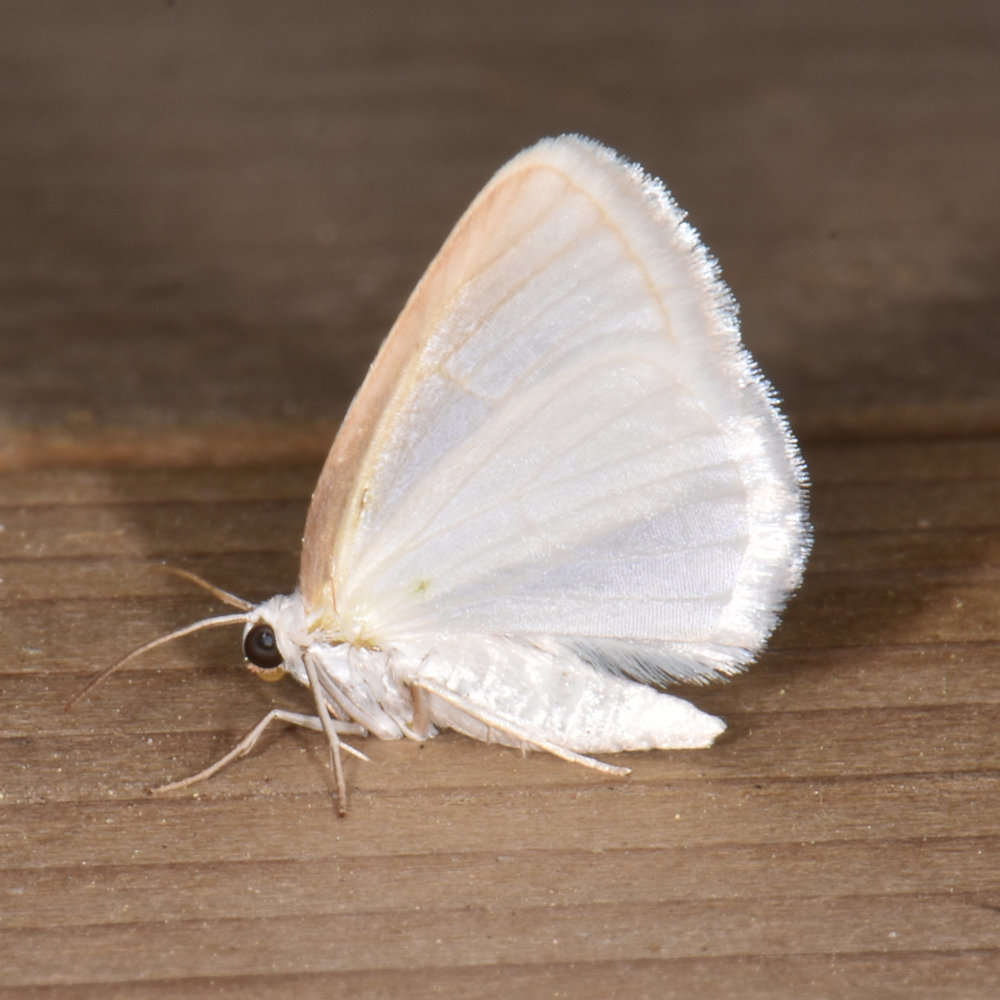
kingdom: Animalia
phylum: Arthropoda
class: Insecta
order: Lepidoptera
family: Geometridae
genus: Lomographa
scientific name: Lomographa vestaliata
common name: White spring moth
